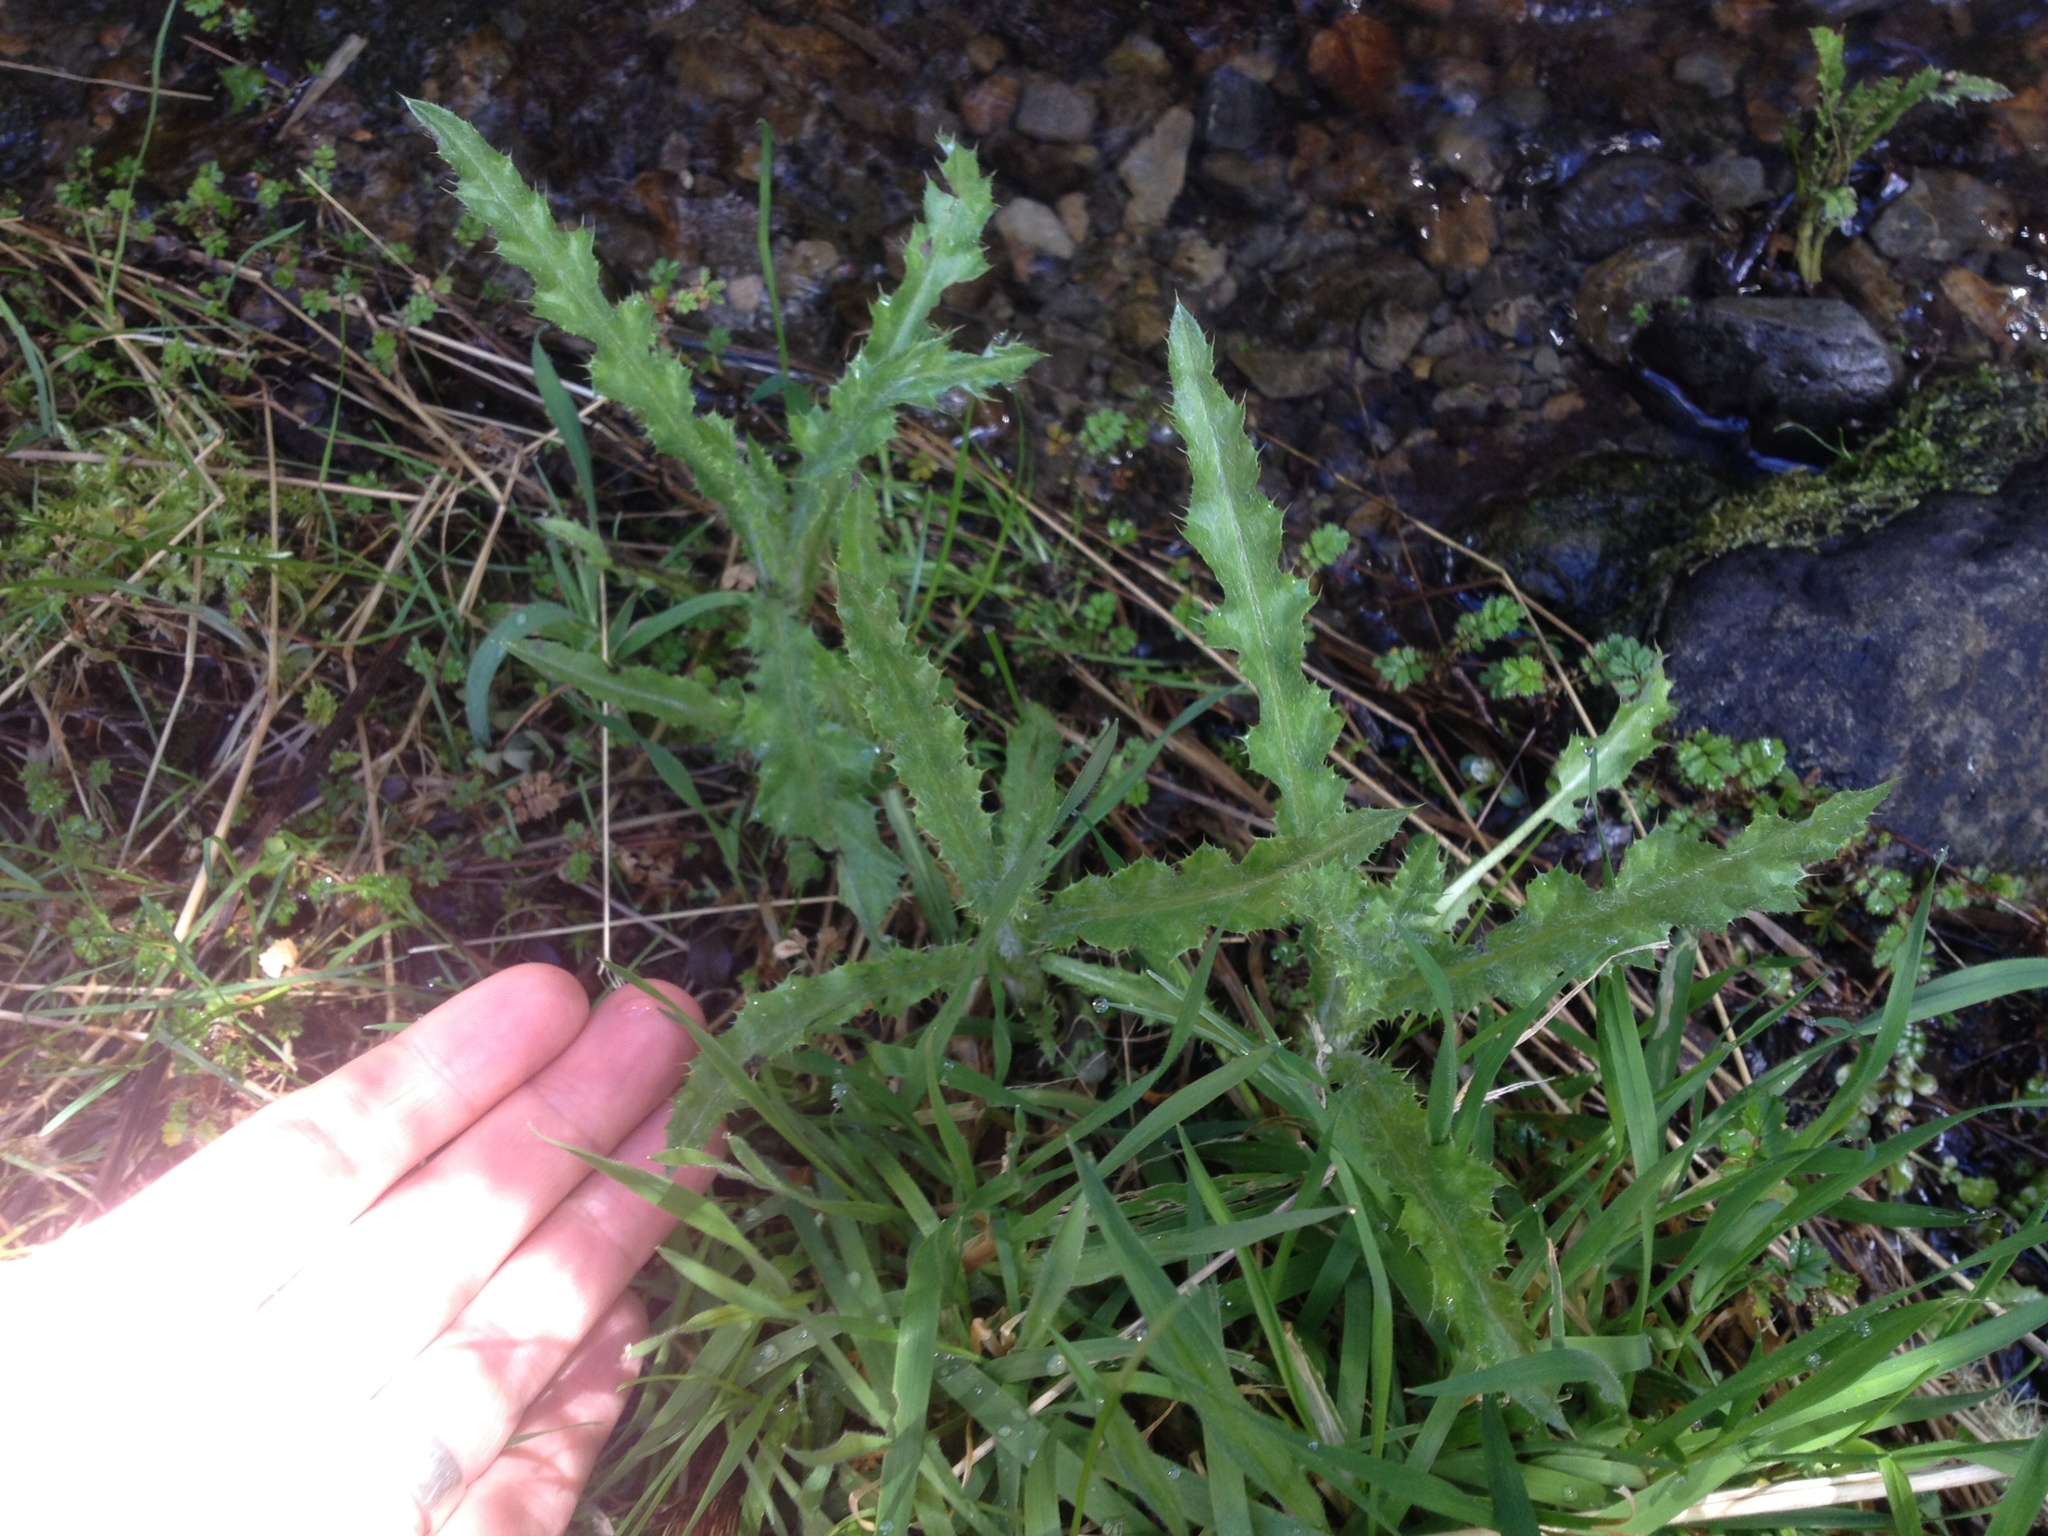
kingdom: Plantae
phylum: Tracheophyta
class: Magnoliopsida
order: Asterales
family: Asteraceae
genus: Cirsium
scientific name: Cirsium arvense
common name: Creeping thistle
